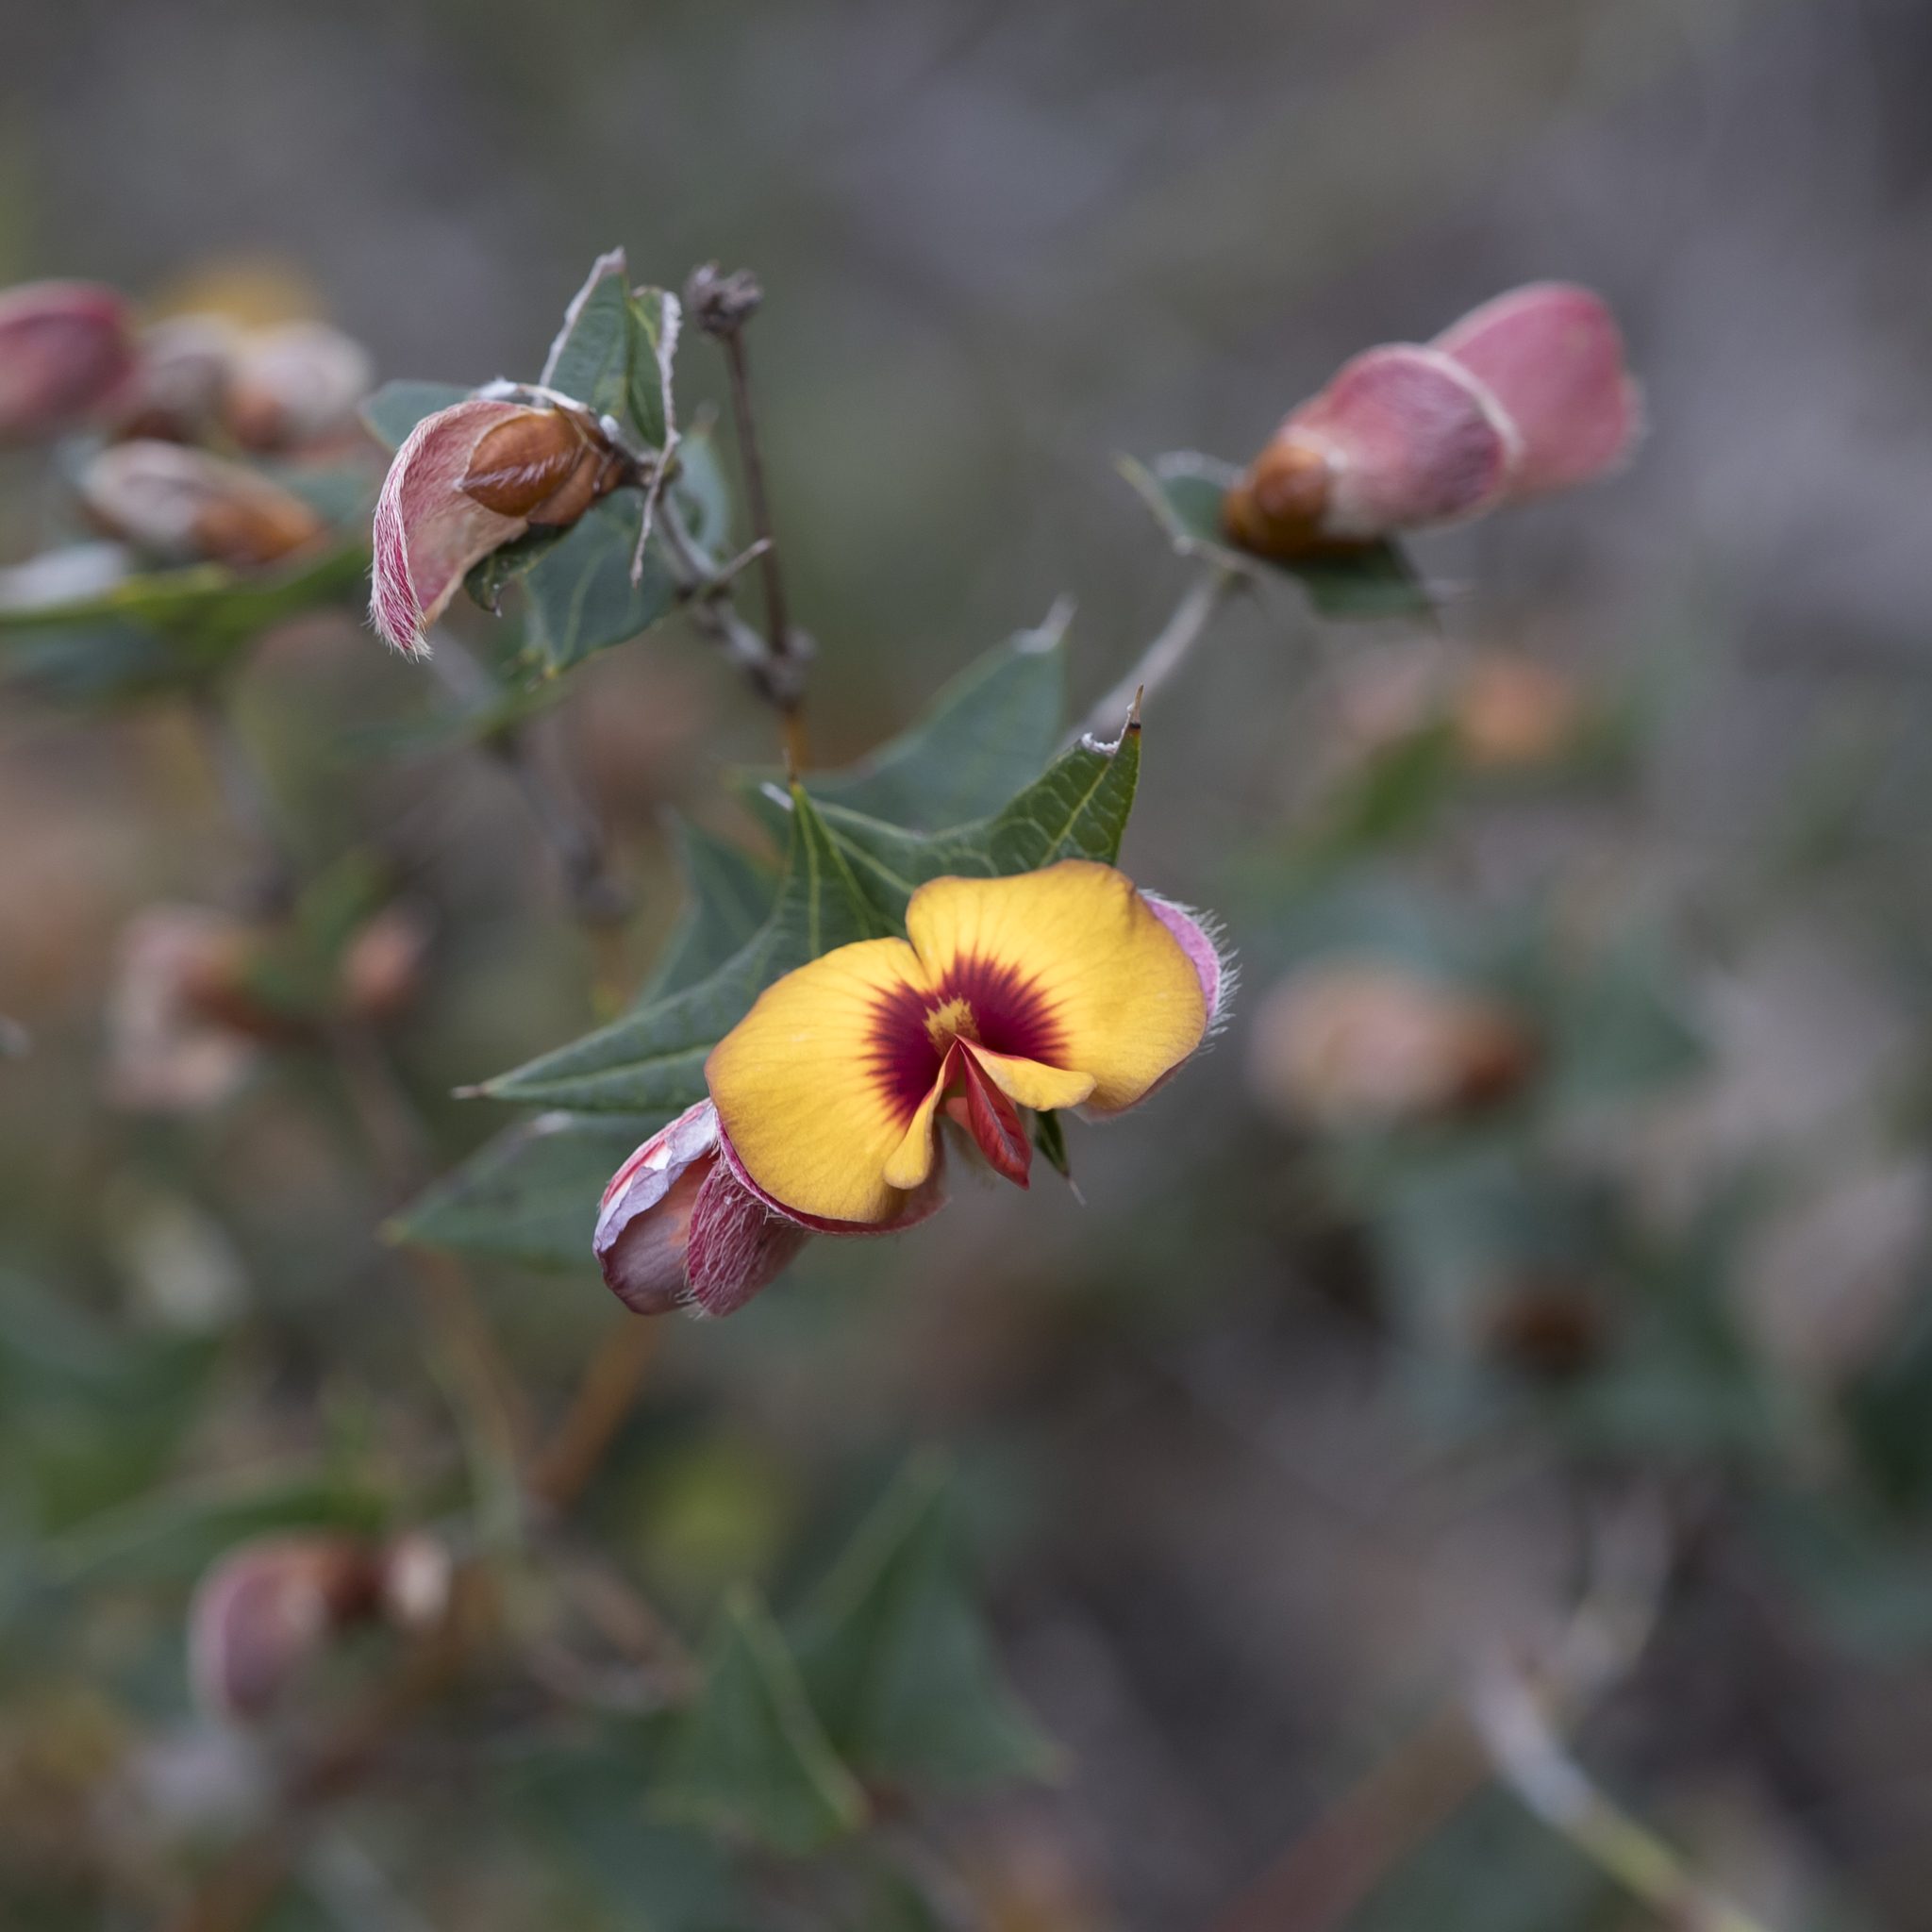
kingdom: Plantae
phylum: Tracheophyta
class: Magnoliopsida
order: Fabales
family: Fabaceae
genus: Platylobium
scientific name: Platylobium obtusangulum
